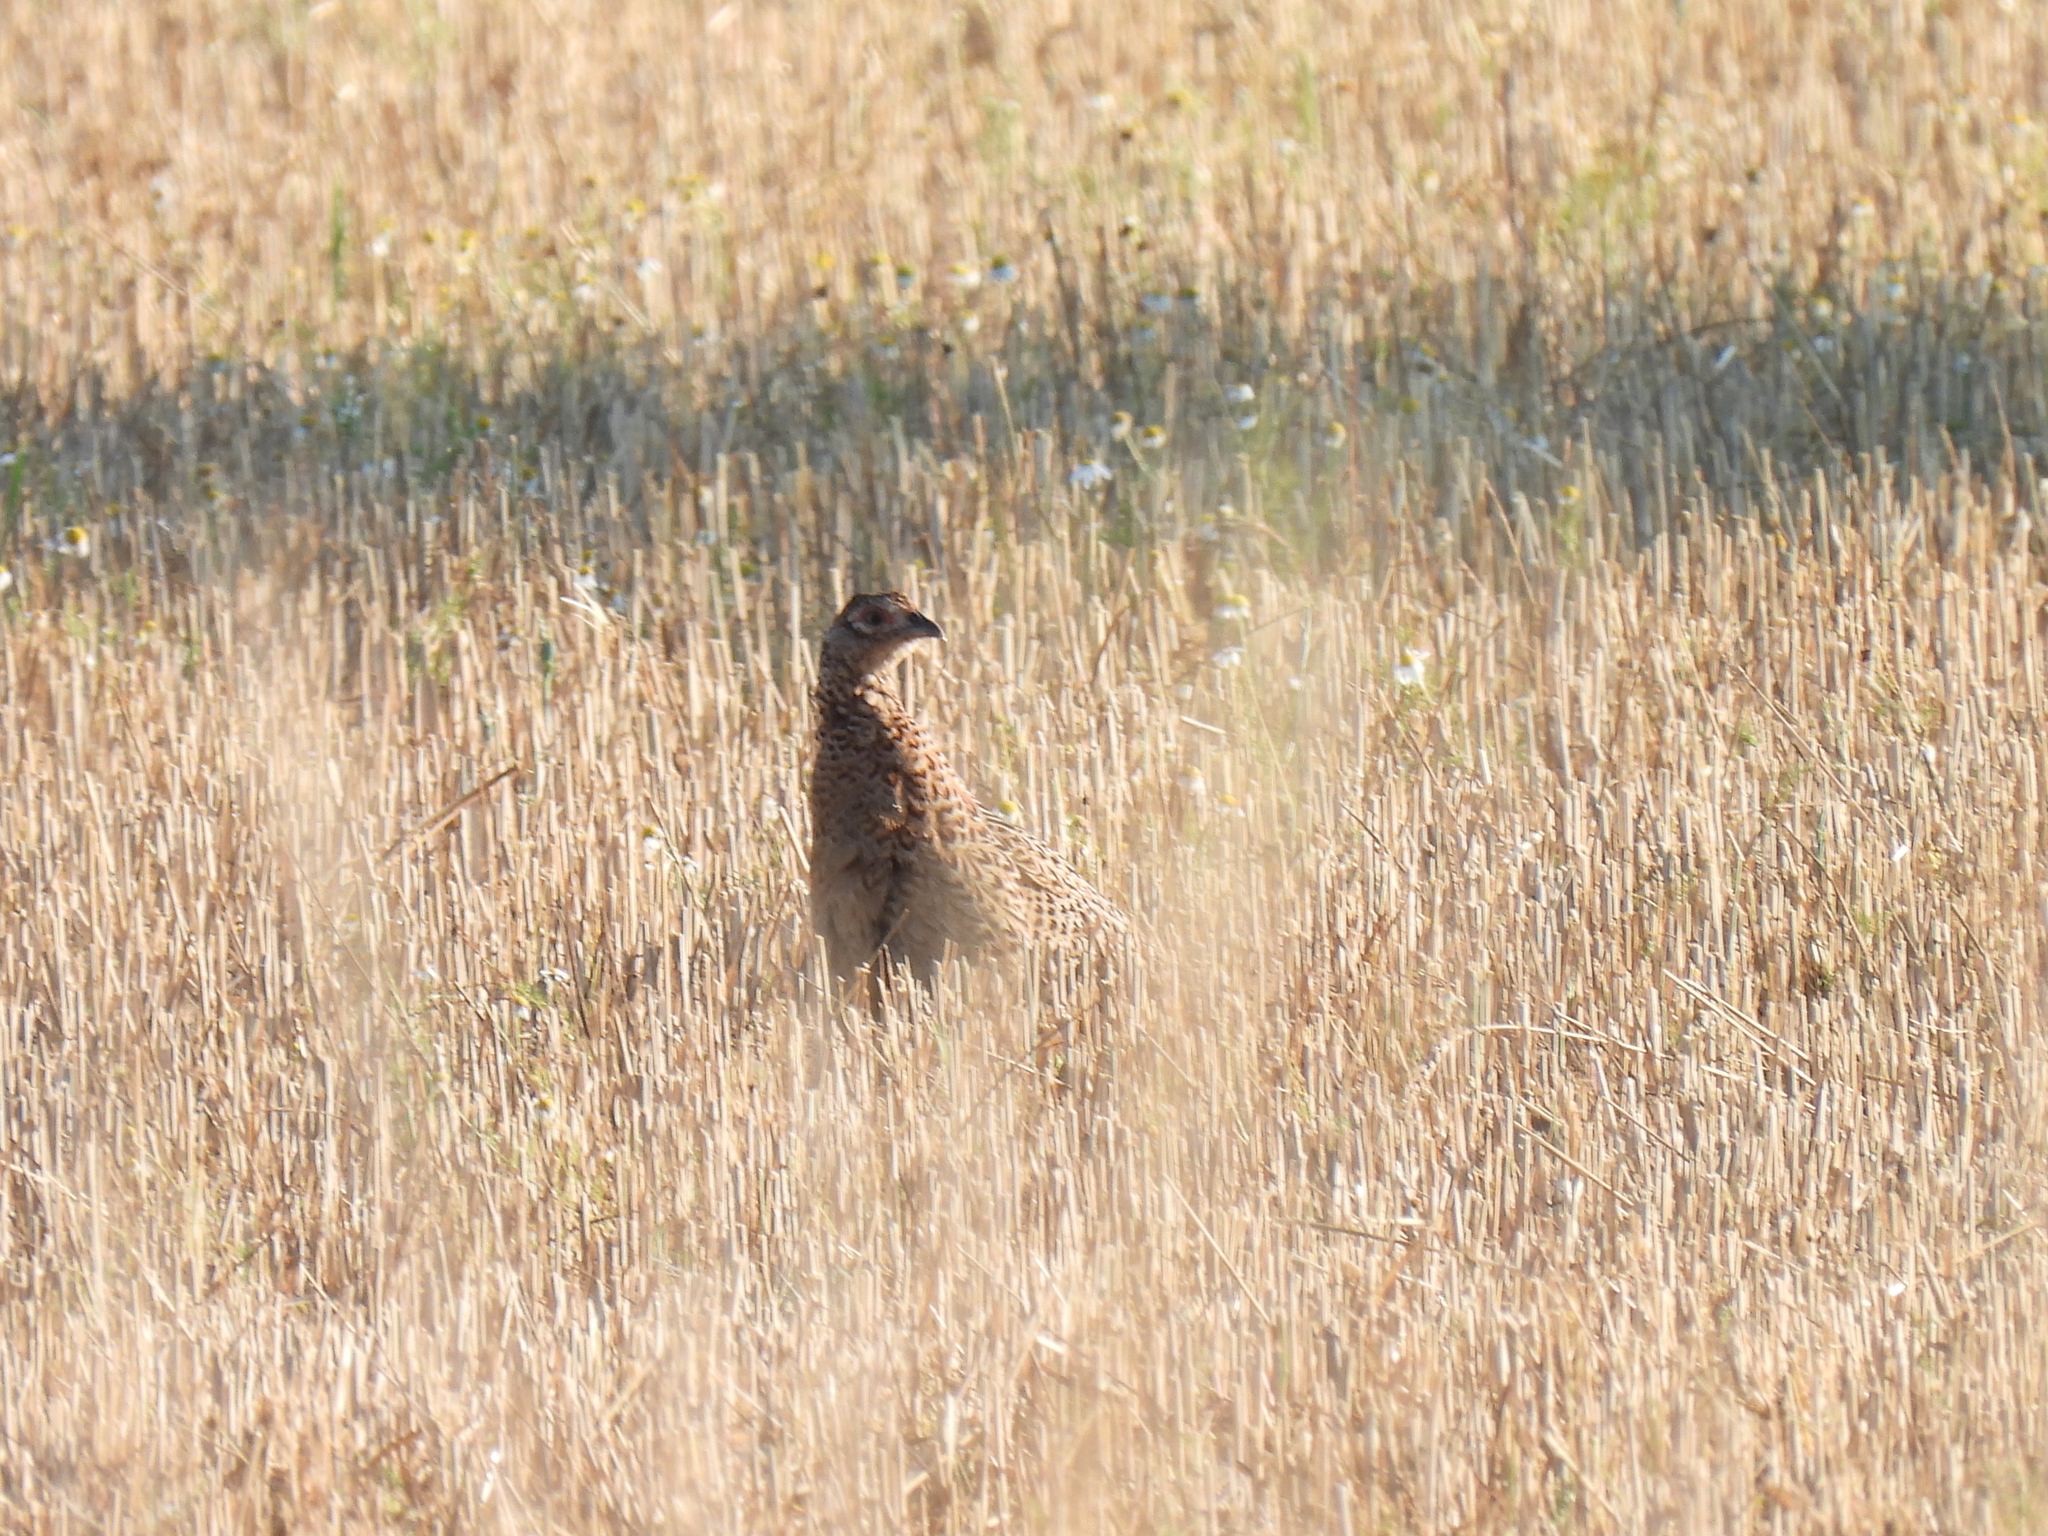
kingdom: Animalia
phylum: Chordata
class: Aves
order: Galliformes
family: Phasianidae
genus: Phasianus
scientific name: Phasianus colchicus
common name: Common pheasant
